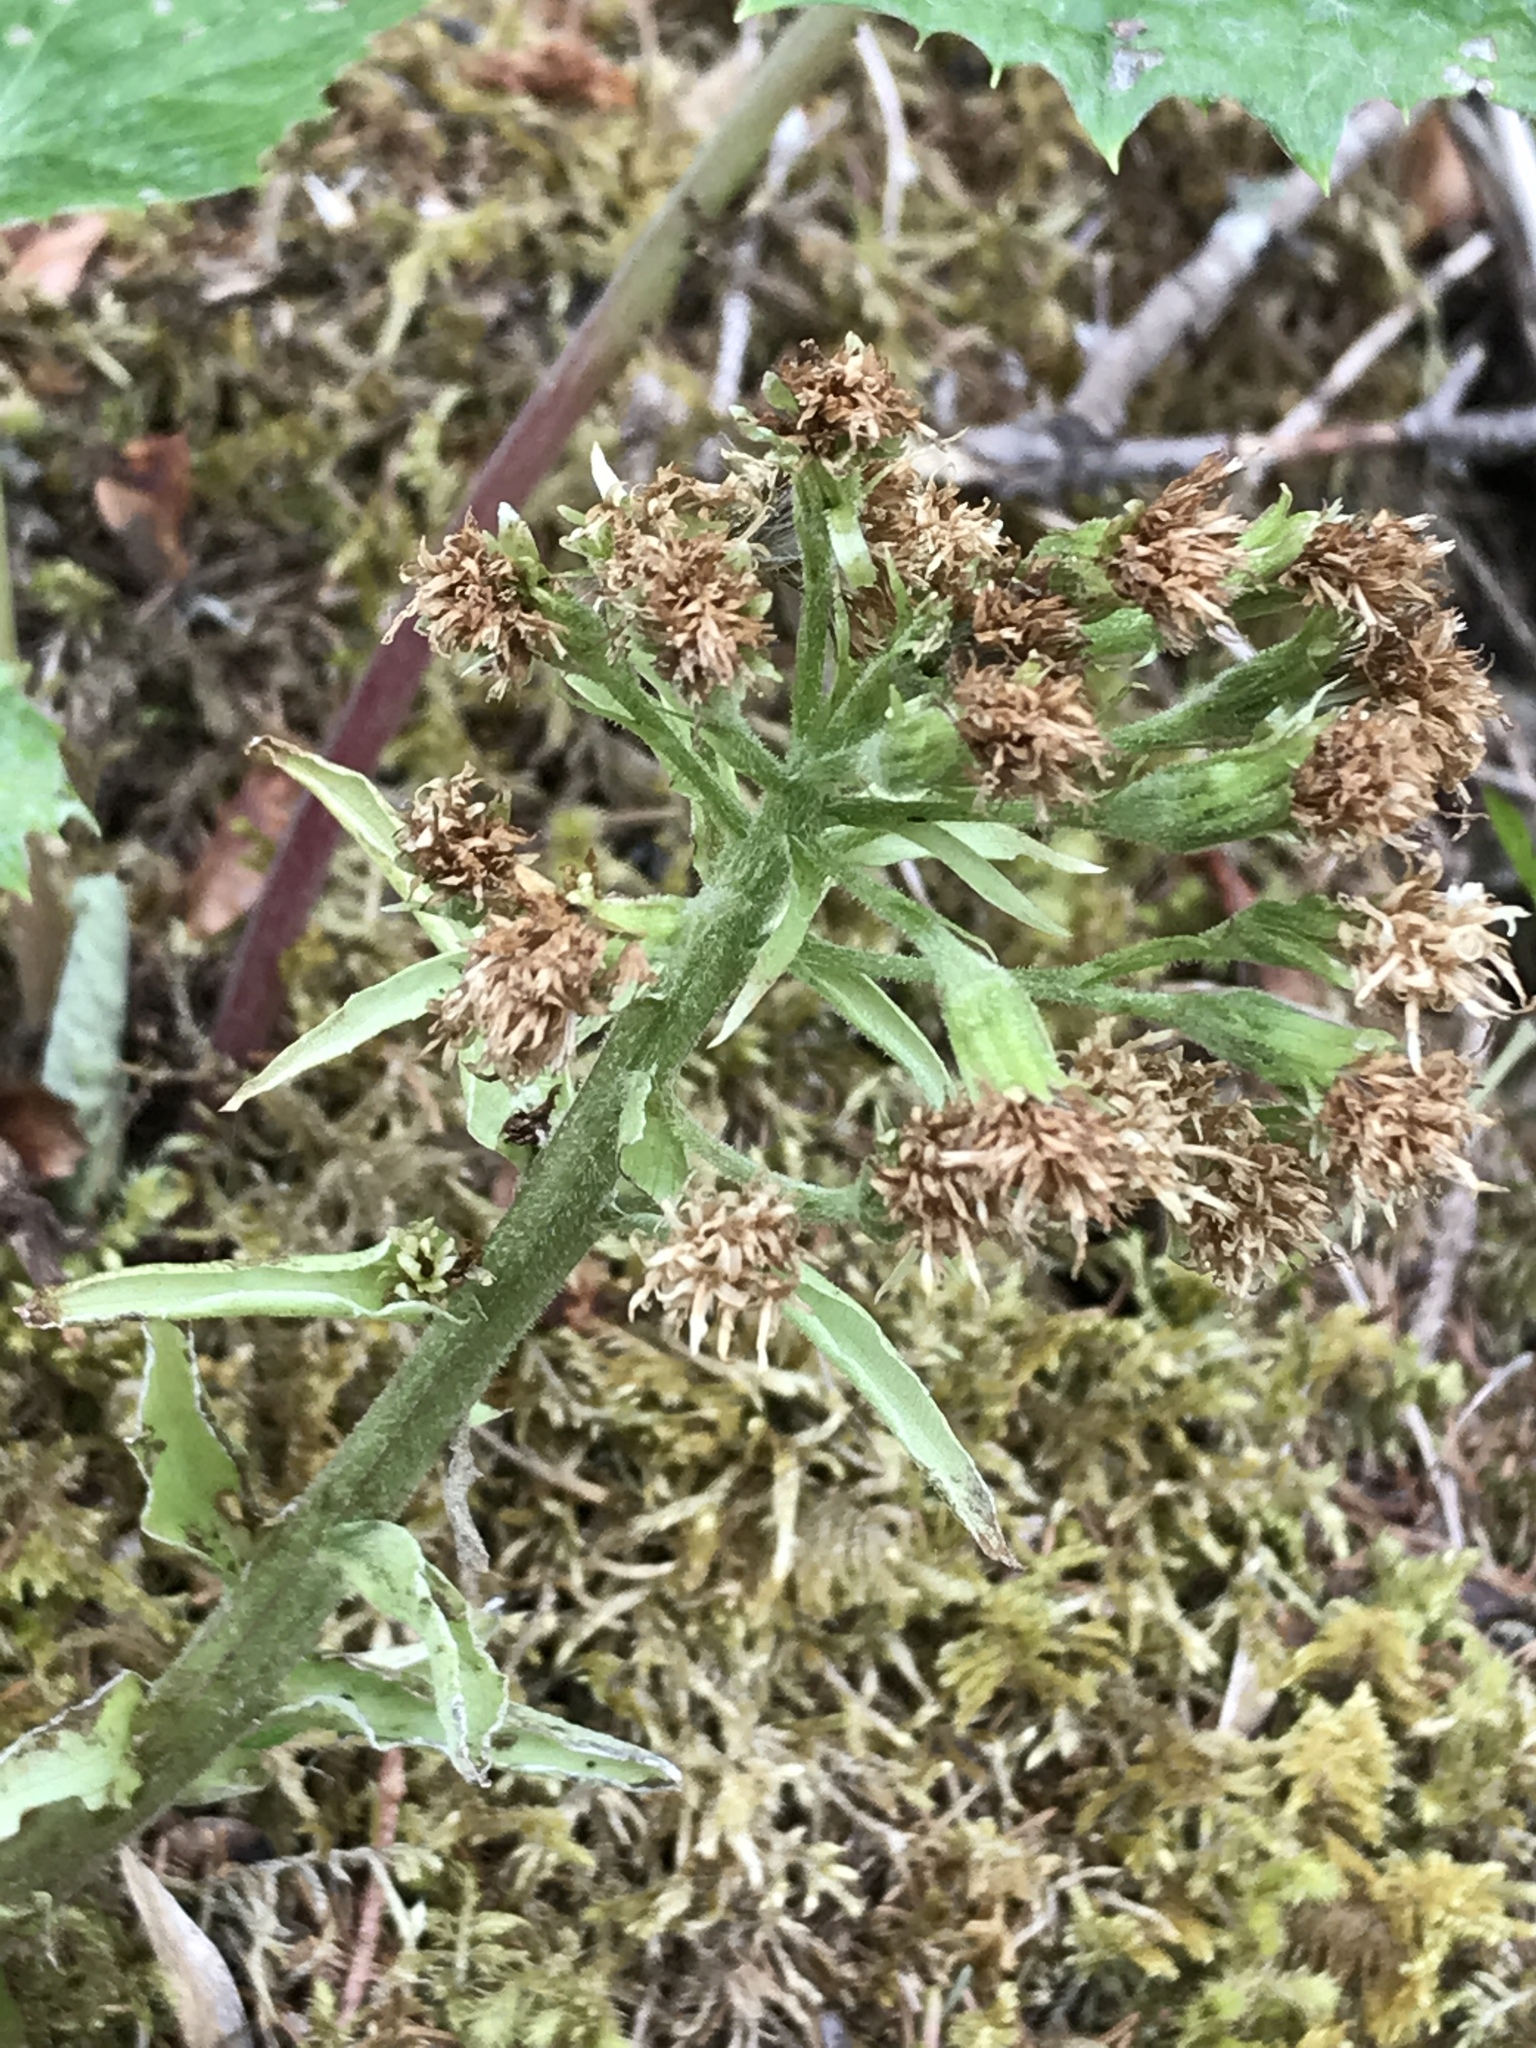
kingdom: Plantae
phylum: Tracheophyta
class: Magnoliopsida
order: Asterales
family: Asteraceae
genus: Petasites
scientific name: Petasites albus
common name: White butterbur
